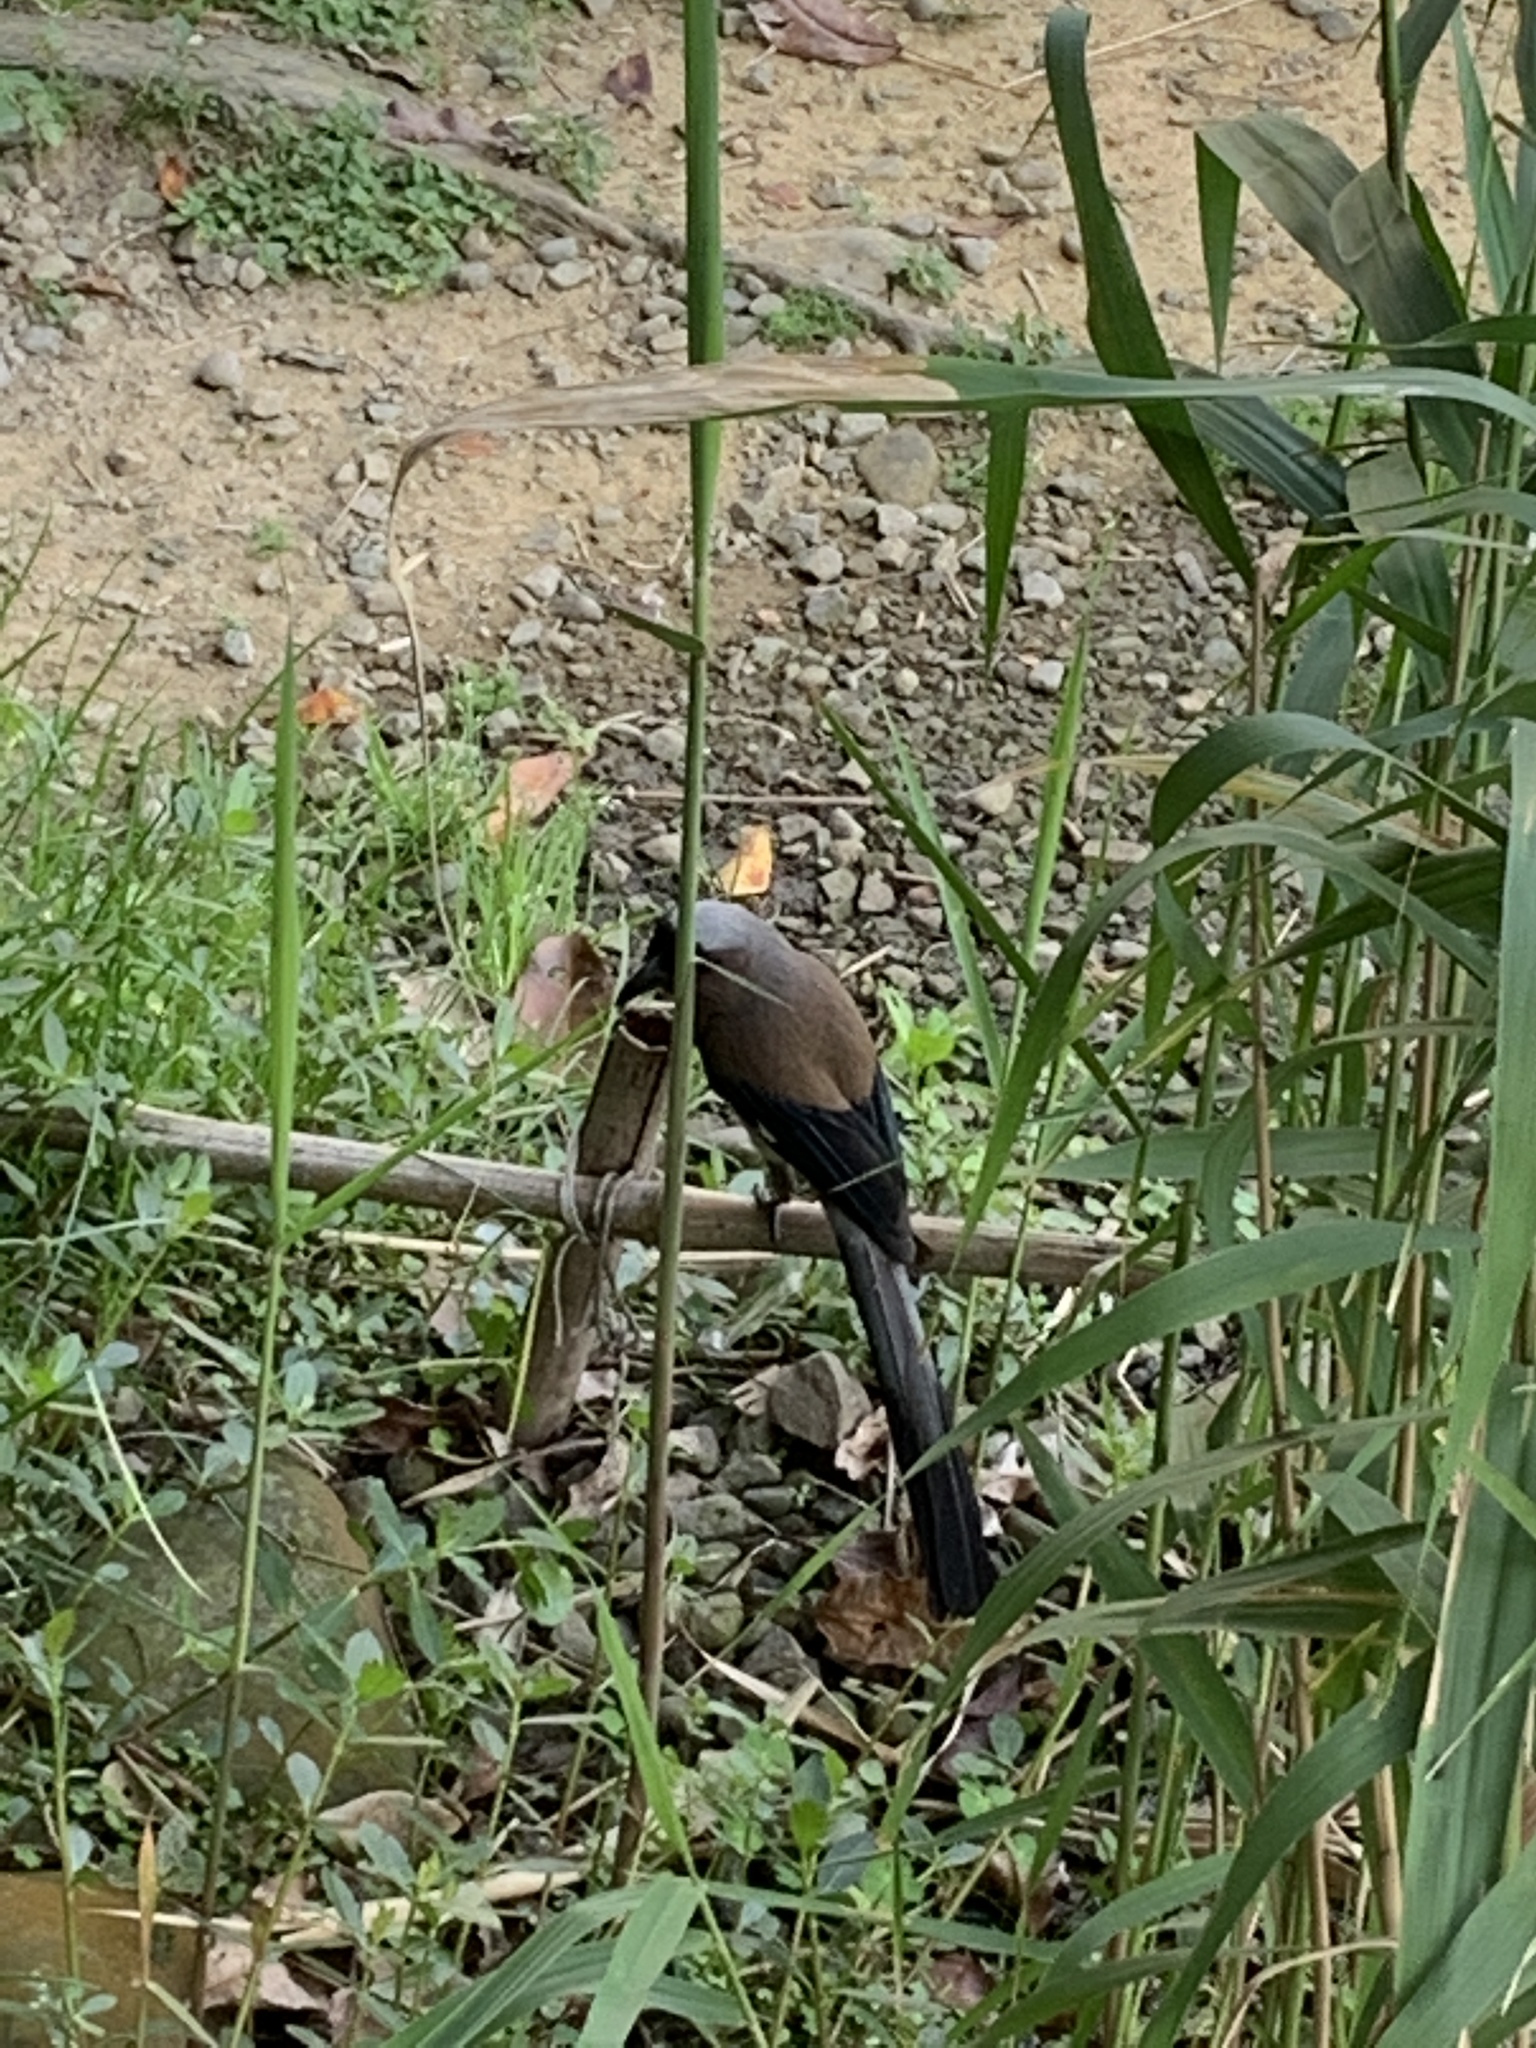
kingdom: Animalia
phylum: Chordata
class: Aves
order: Passeriformes
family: Corvidae
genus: Dendrocitta
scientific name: Dendrocitta formosae
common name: Grey treepie
